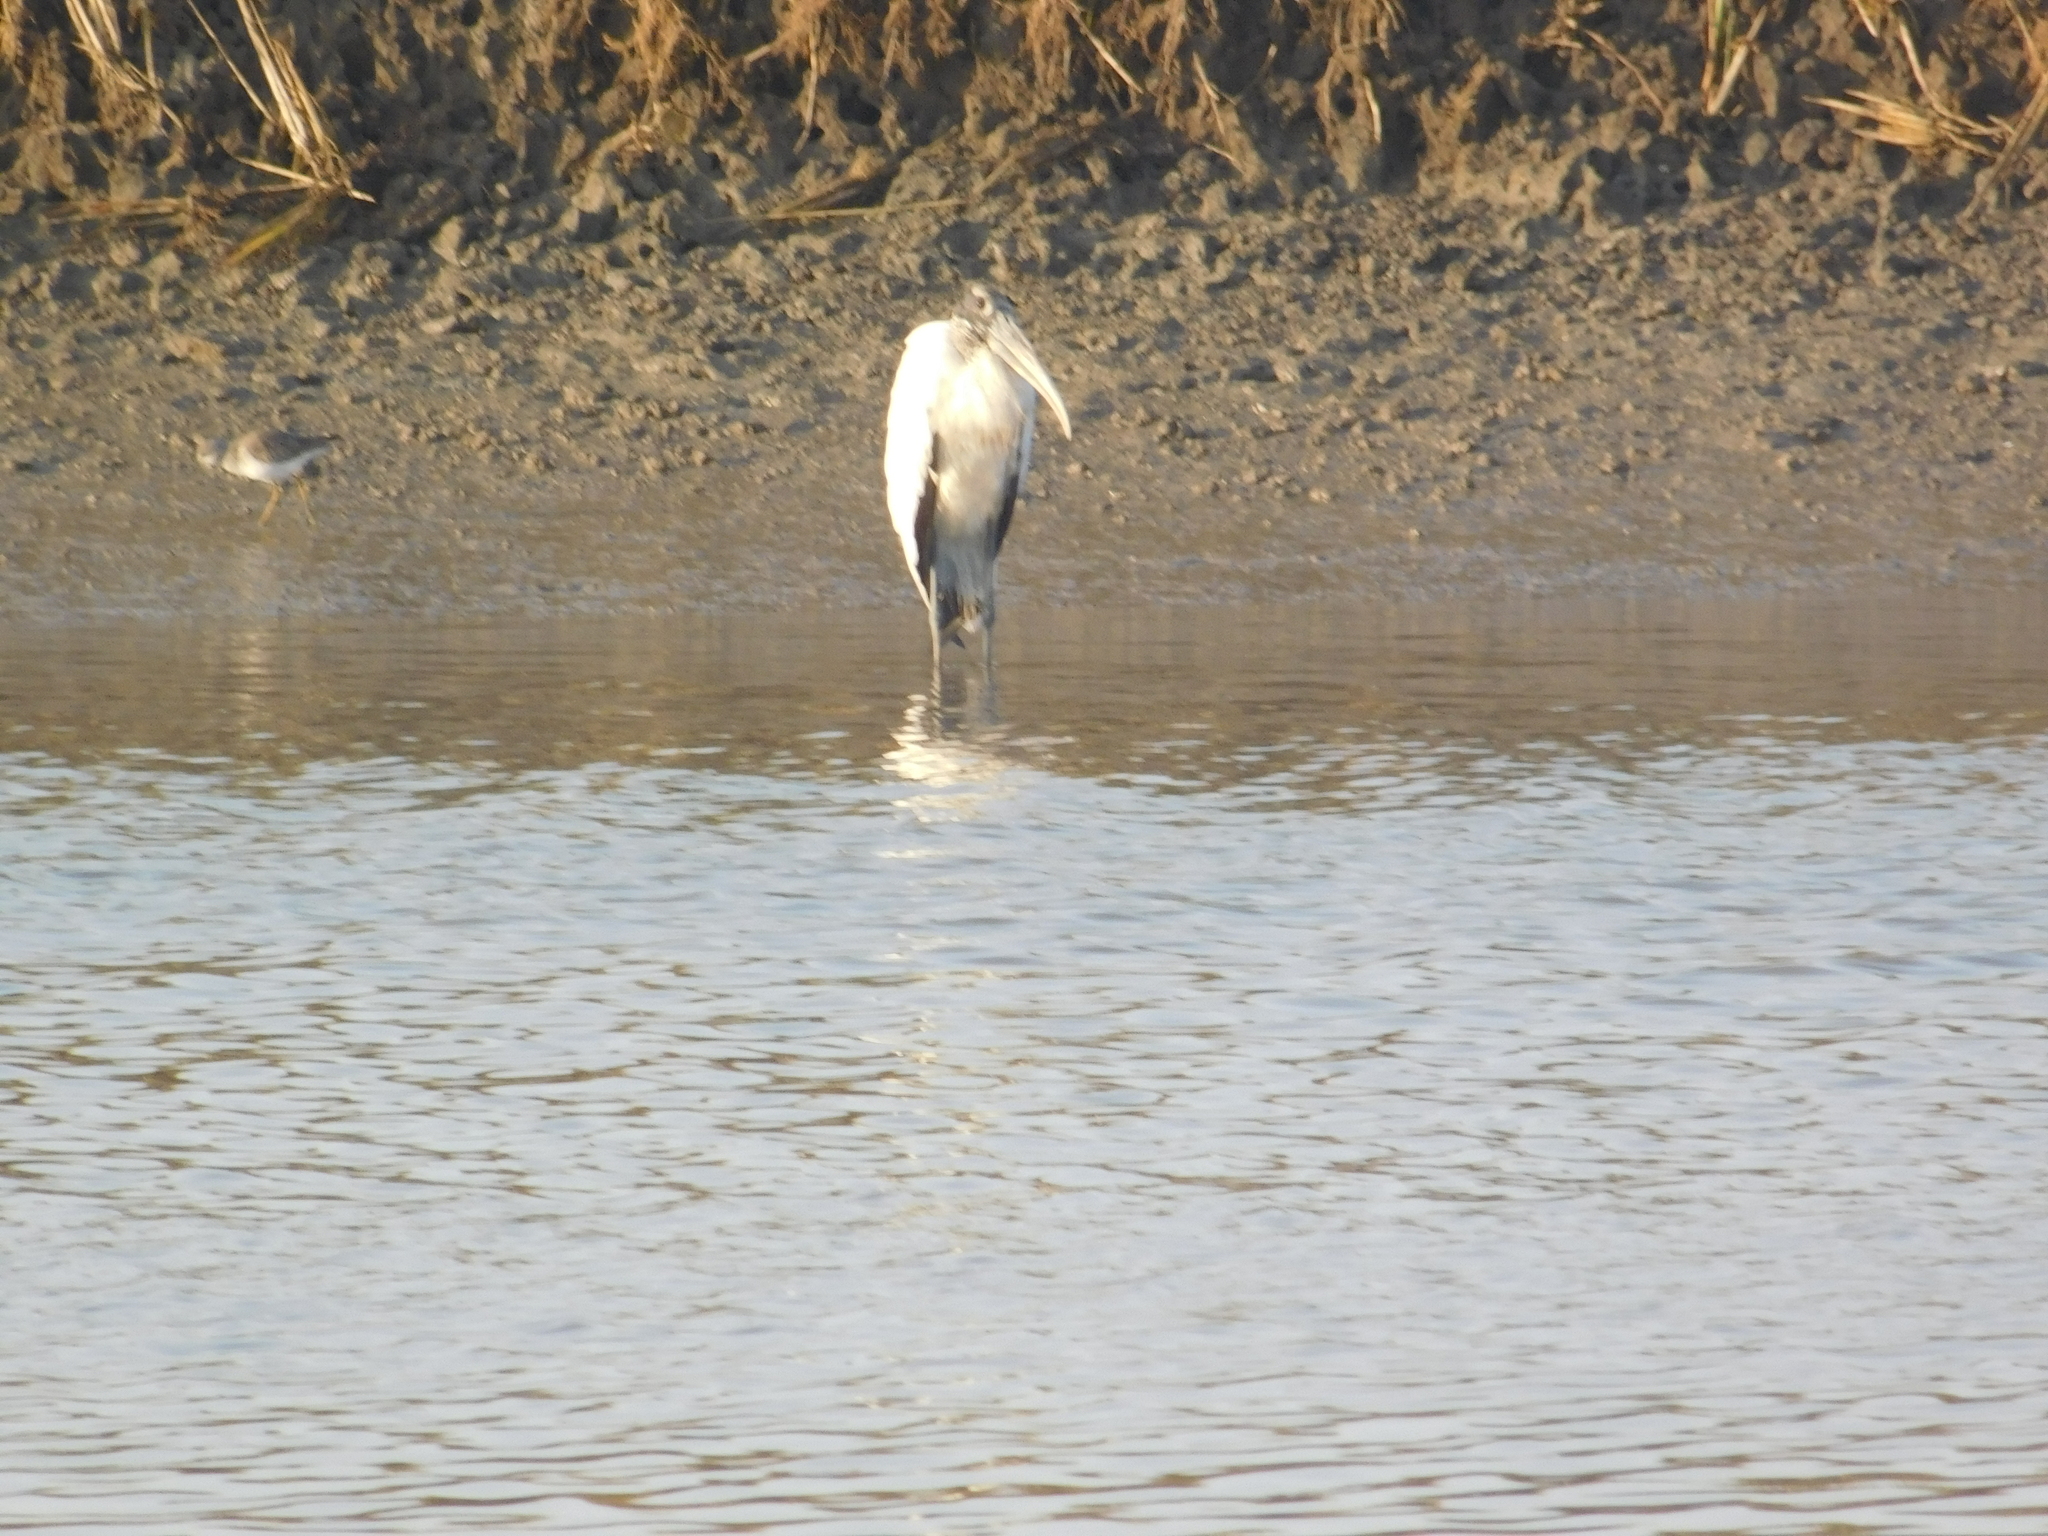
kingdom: Animalia
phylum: Chordata
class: Aves
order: Ciconiiformes
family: Ciconiidae
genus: Mycteria
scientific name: Mycteria americana
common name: Wood stork
